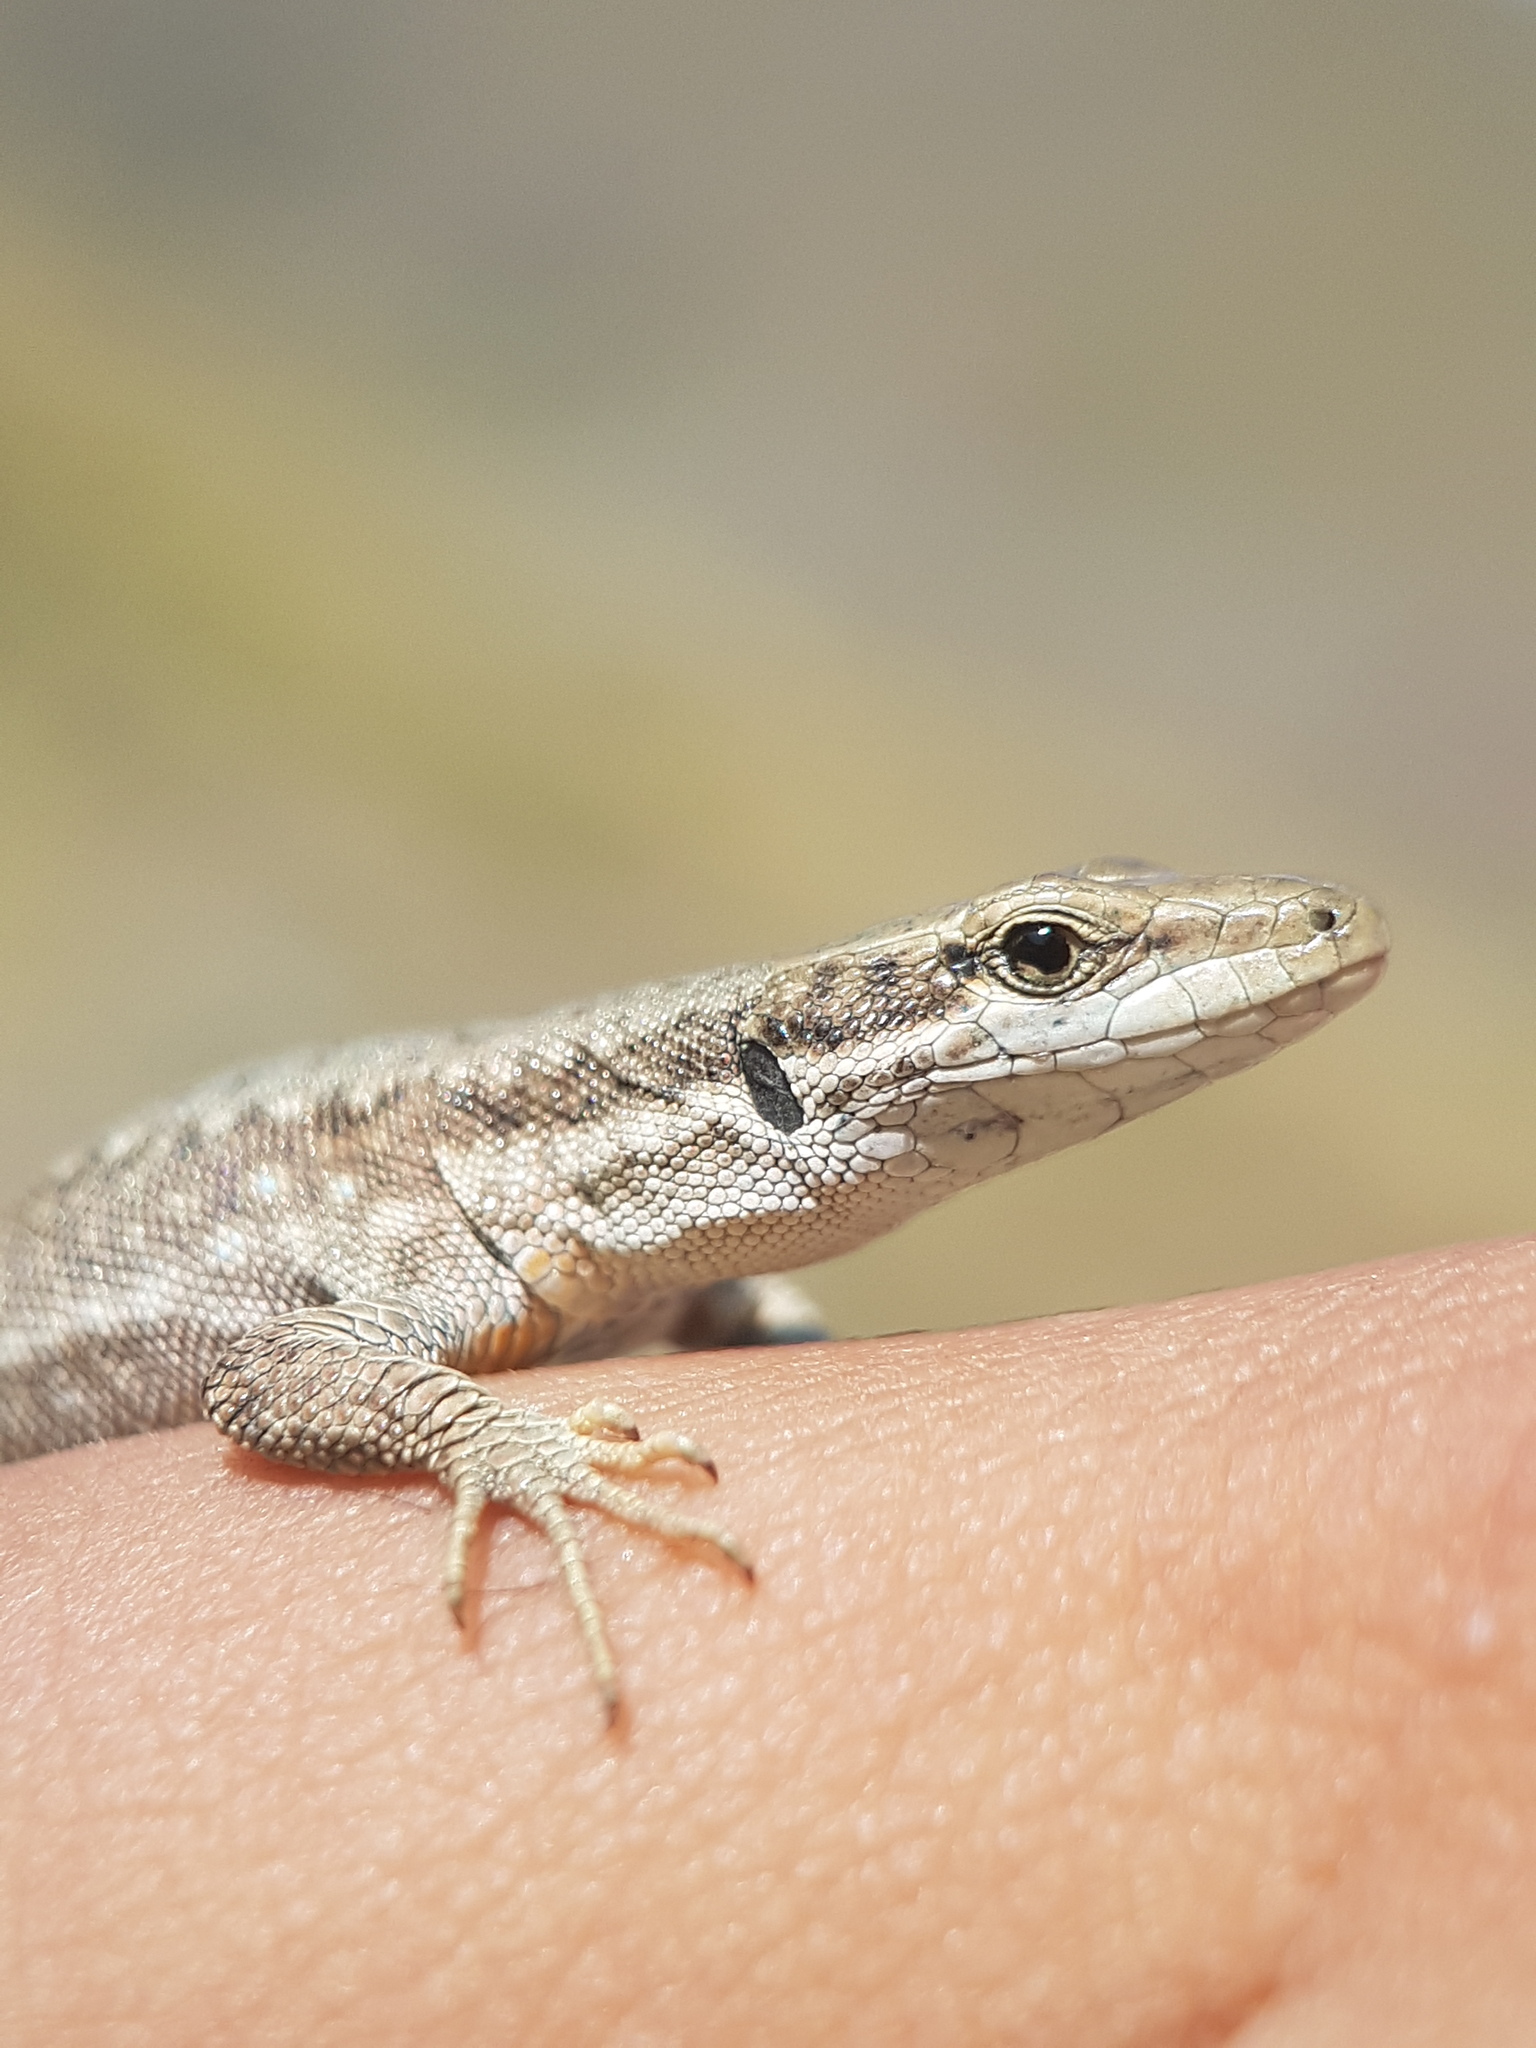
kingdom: Animalia
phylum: Chordata
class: Squamata
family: Lacertidae
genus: Darevskia
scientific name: Darevskia schaekeli
